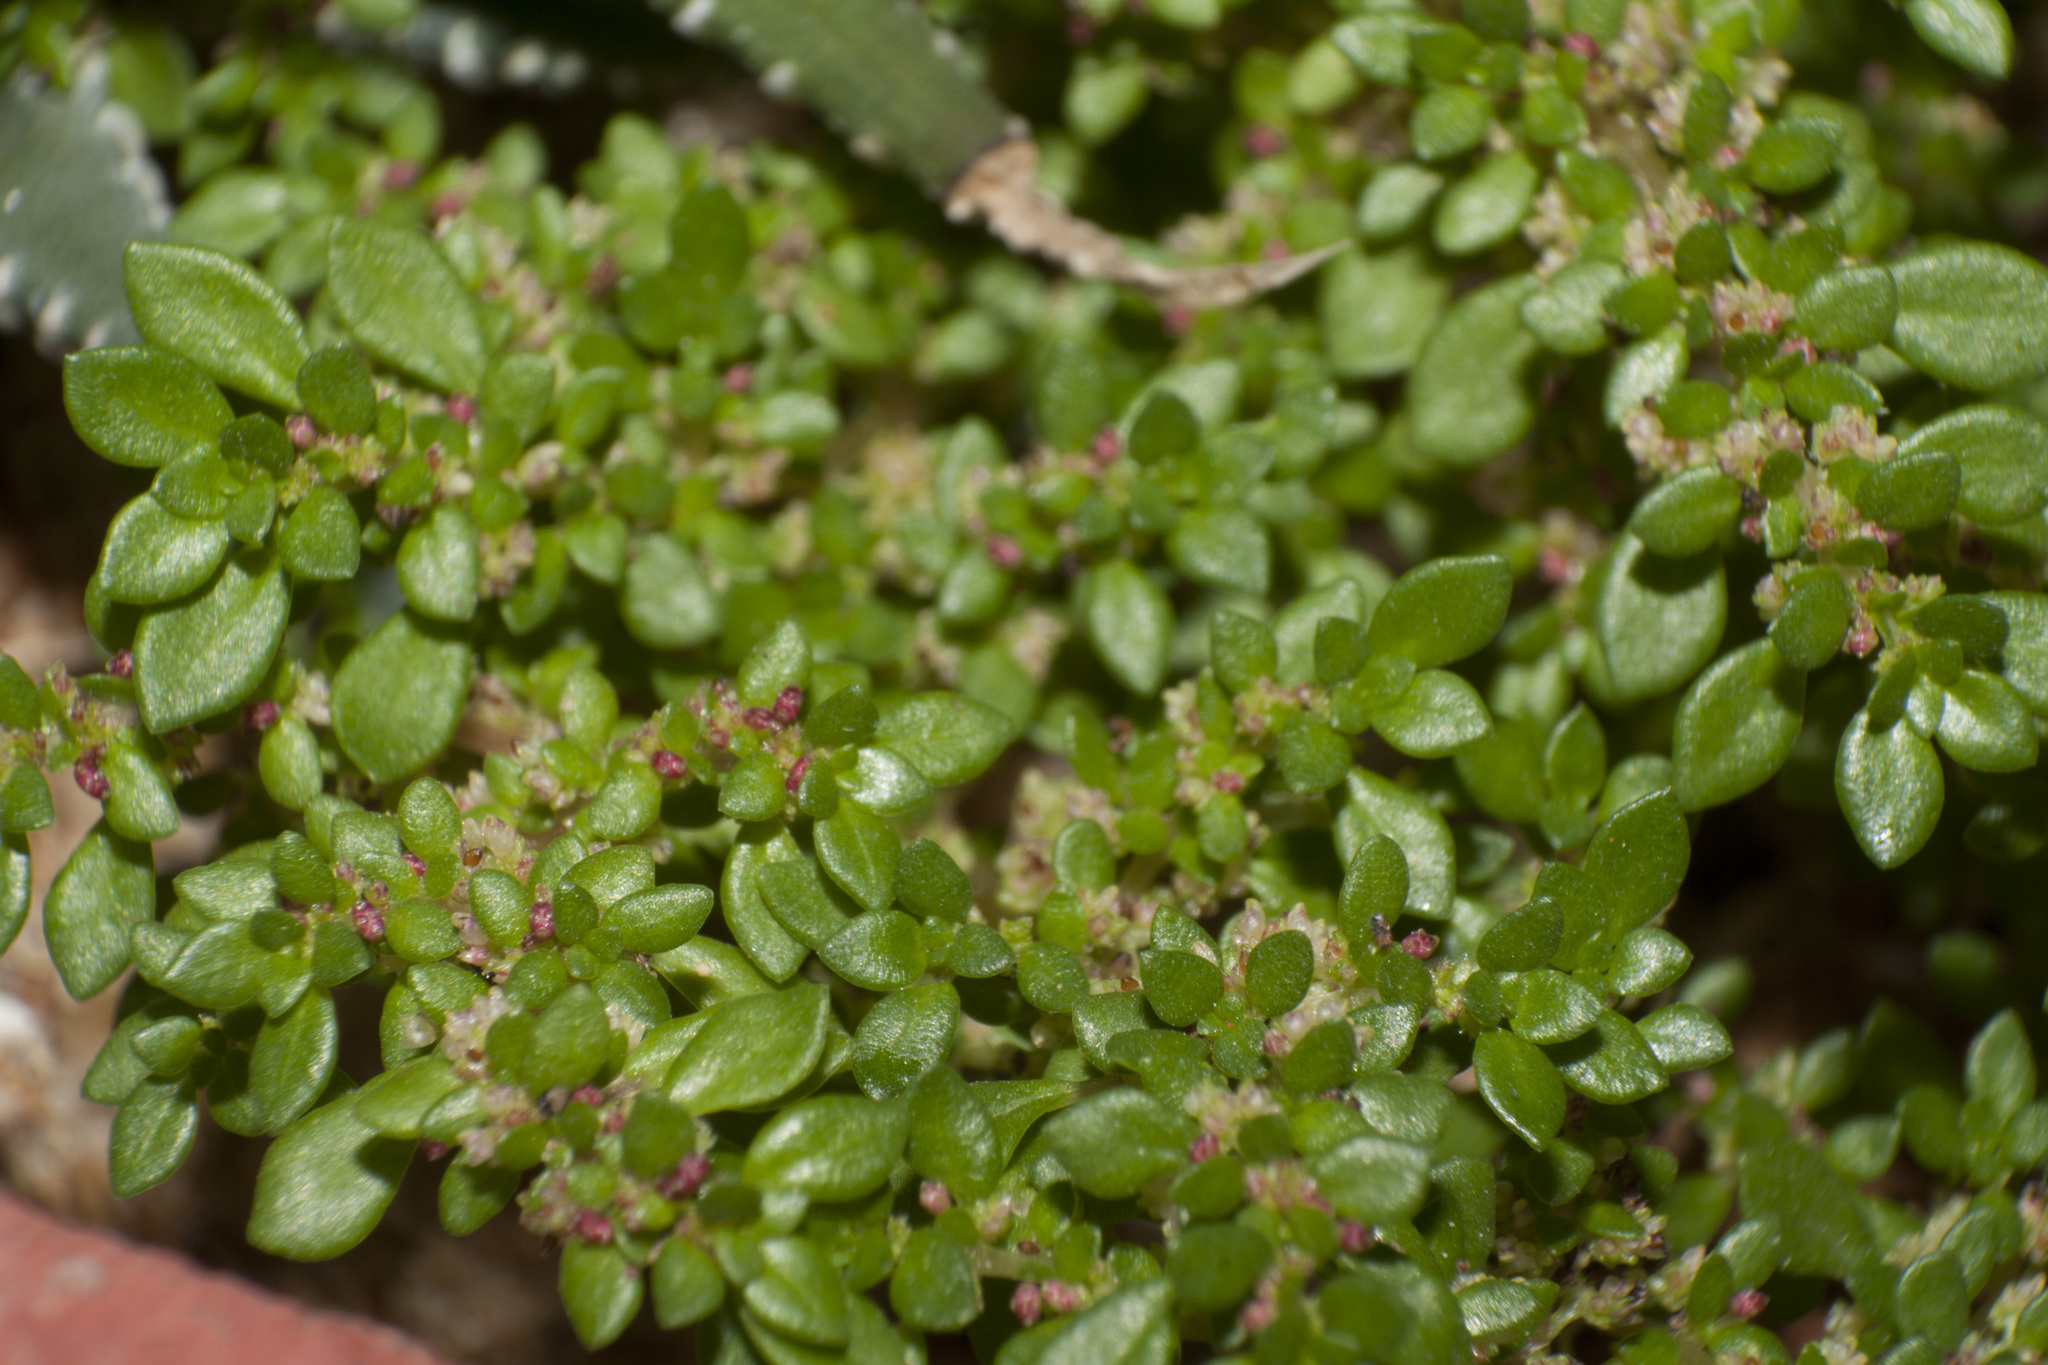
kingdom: Plantae
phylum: Tracheophyta
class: Magnoliopsida
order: Rosales
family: Urticaceae
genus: Pilea
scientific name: Pilea microphylla
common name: Artillery-plant
